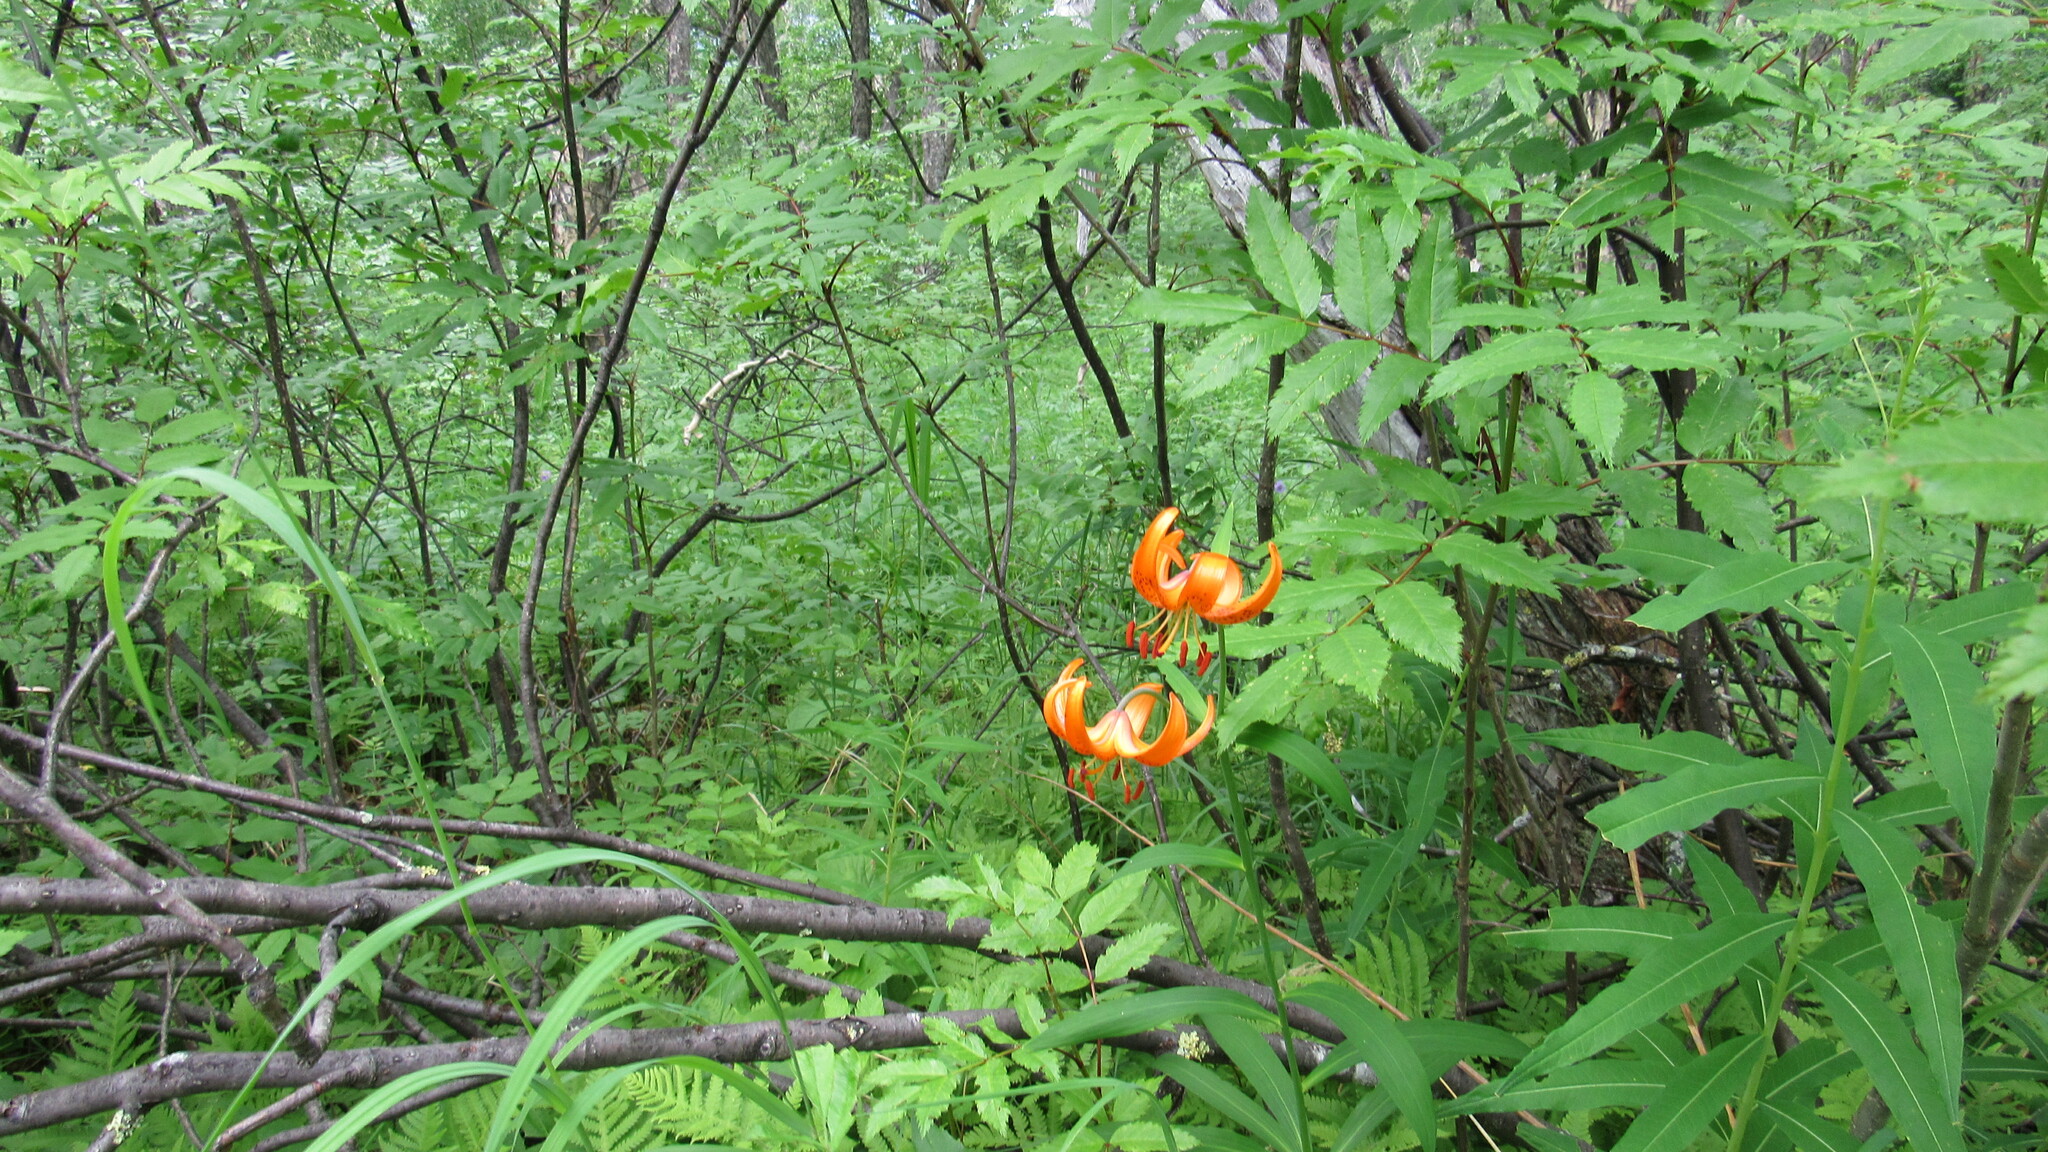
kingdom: Plantae
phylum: Tracheophyta
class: Liliopsida
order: Liliales
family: Liliaceae
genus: Lilium
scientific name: Lilium debile
